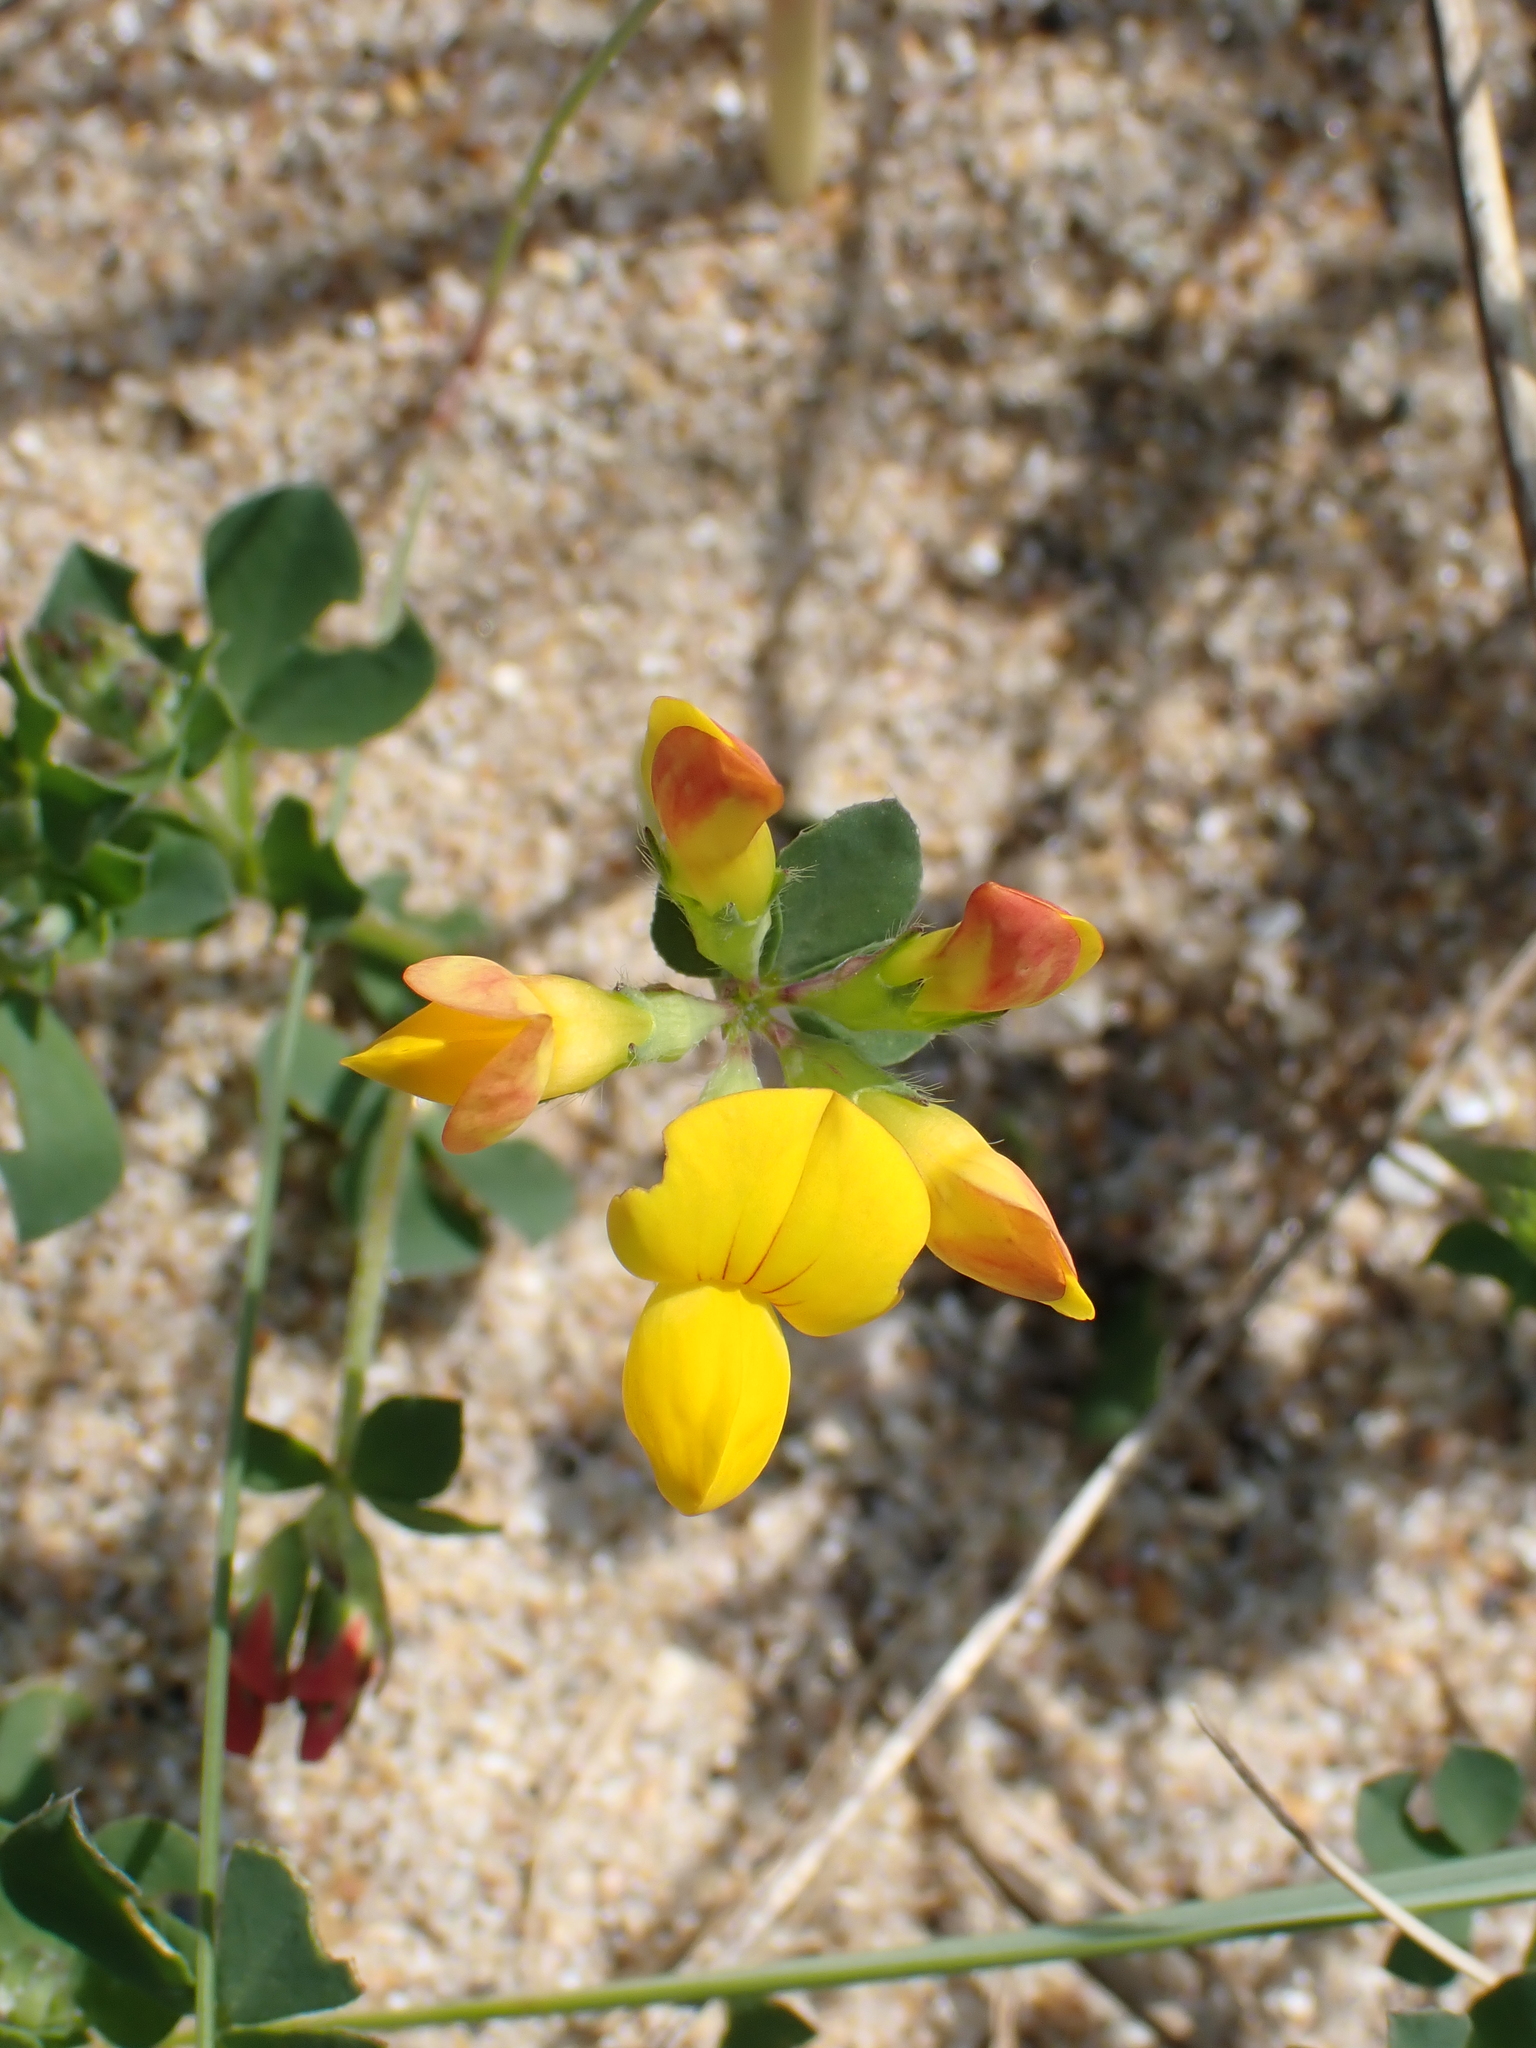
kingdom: Plantae
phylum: Tracheophyta
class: Magnoliopsida
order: Fabales
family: Fabaceae
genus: Lotus
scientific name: Lotus corniculatus
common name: Common bird's-foot-trefoil
